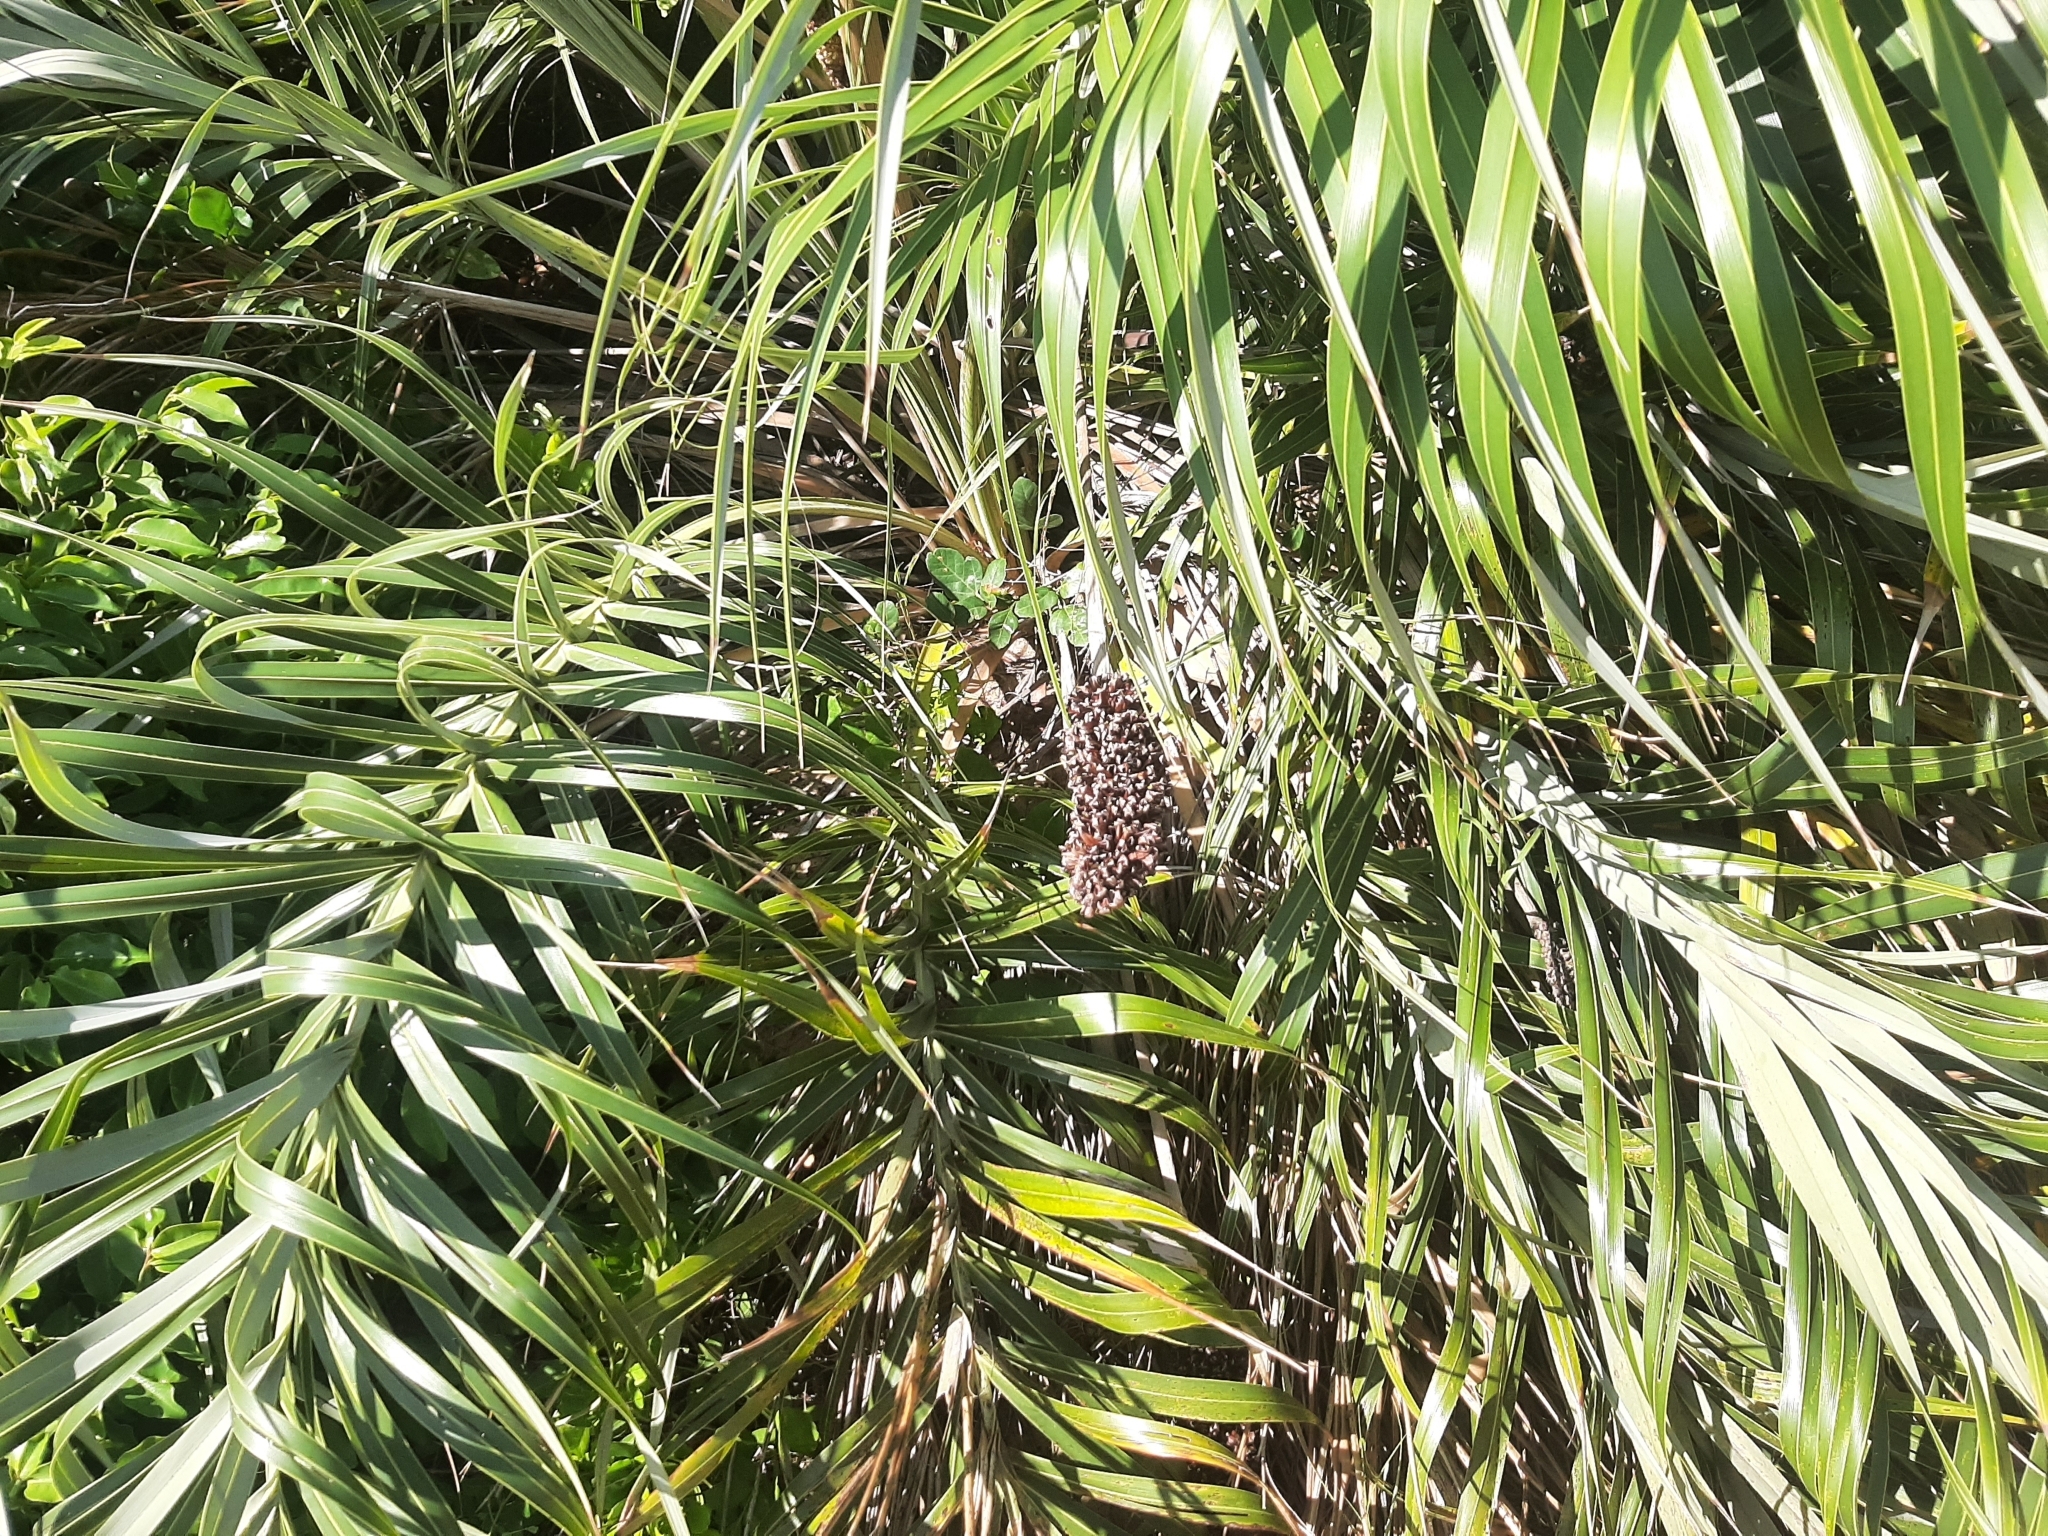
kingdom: Plantae
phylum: Tracheophyta
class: Liliopsida
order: Arecales
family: Arecaceae
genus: Allagoptera
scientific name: Allagoptera arenaria
